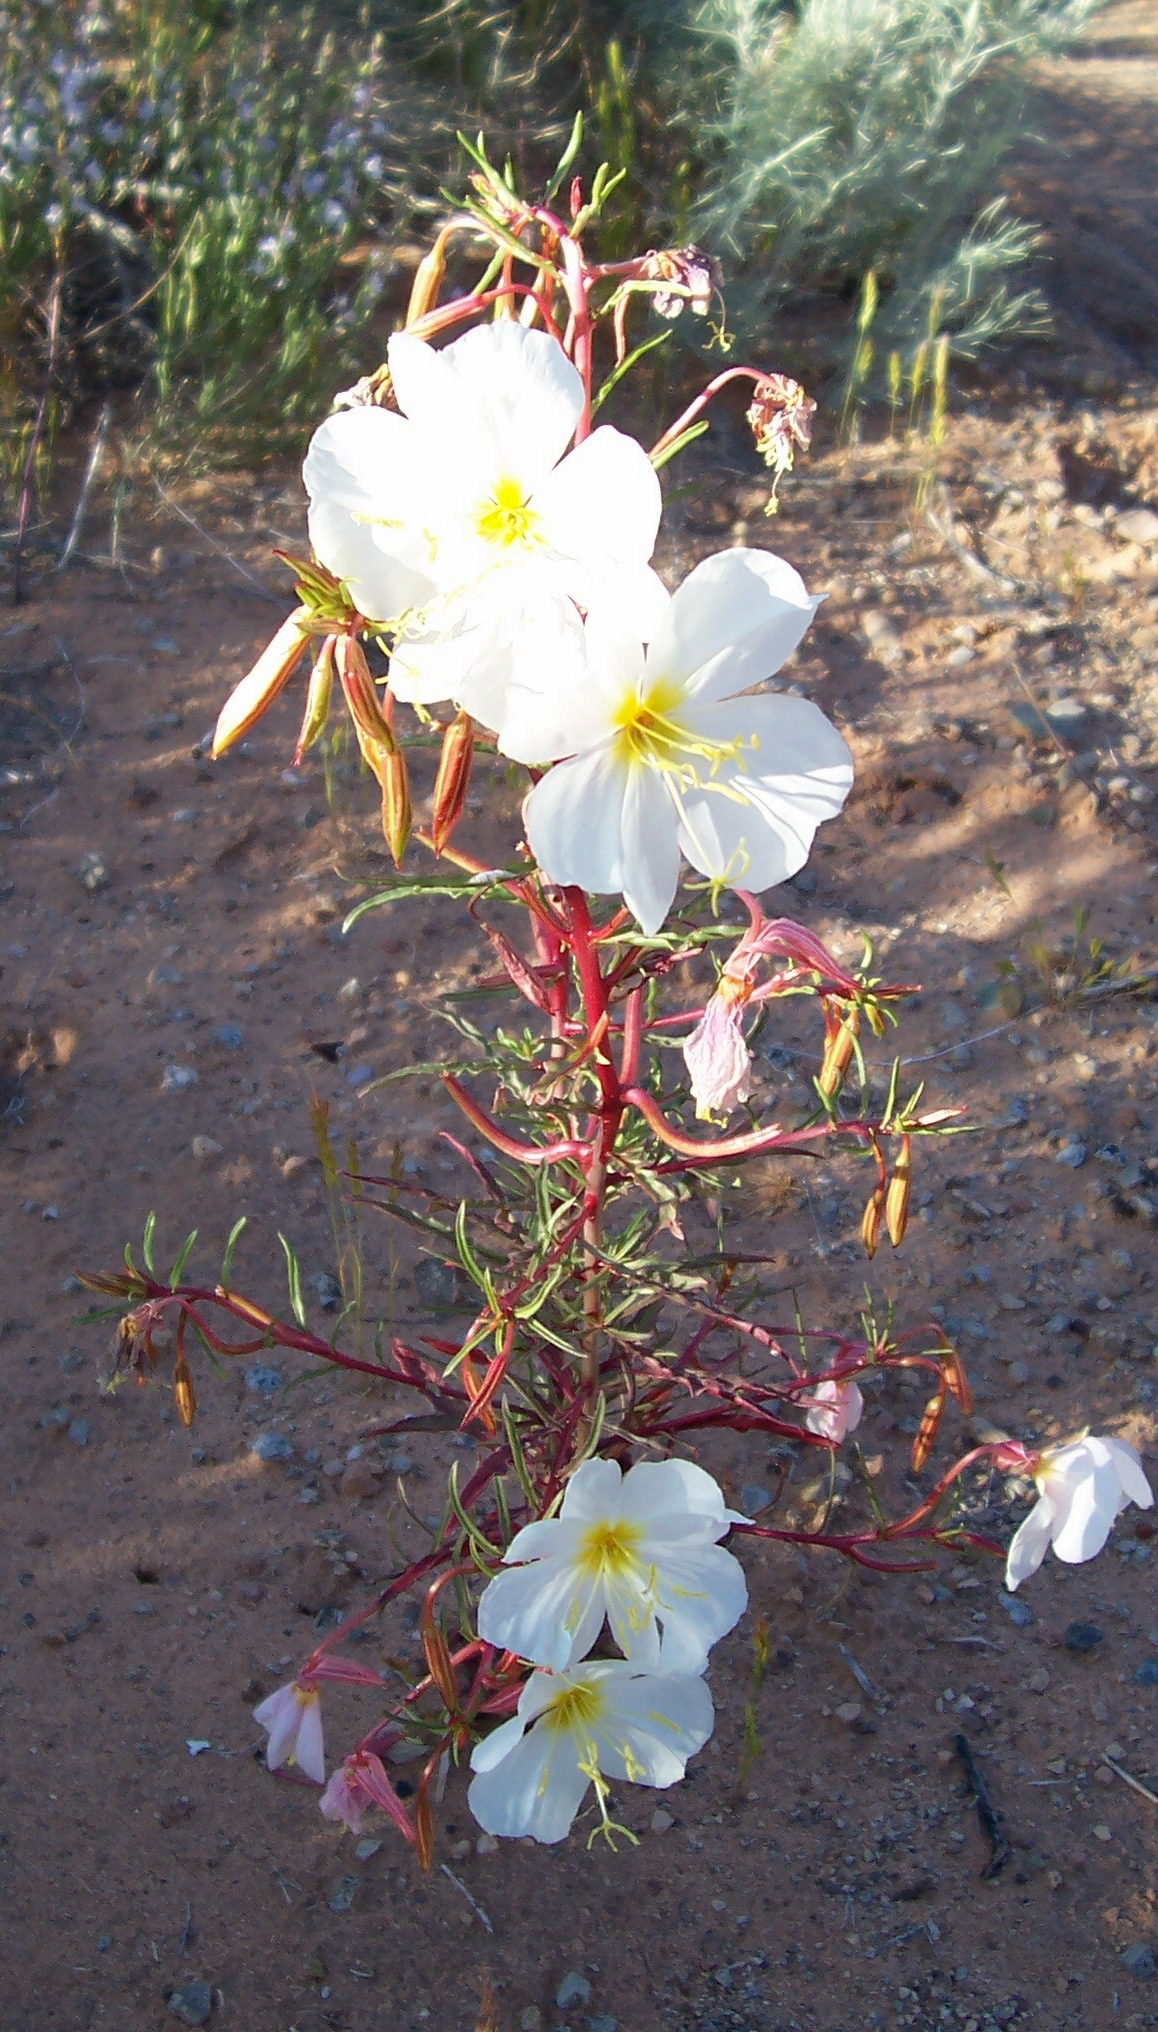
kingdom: Plantae
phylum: Tracheophyta
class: Magnoliopsida
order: Myrtales
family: Onagraceae
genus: Oenothera
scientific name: Oenothera pallida
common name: Pale evening-primrose
